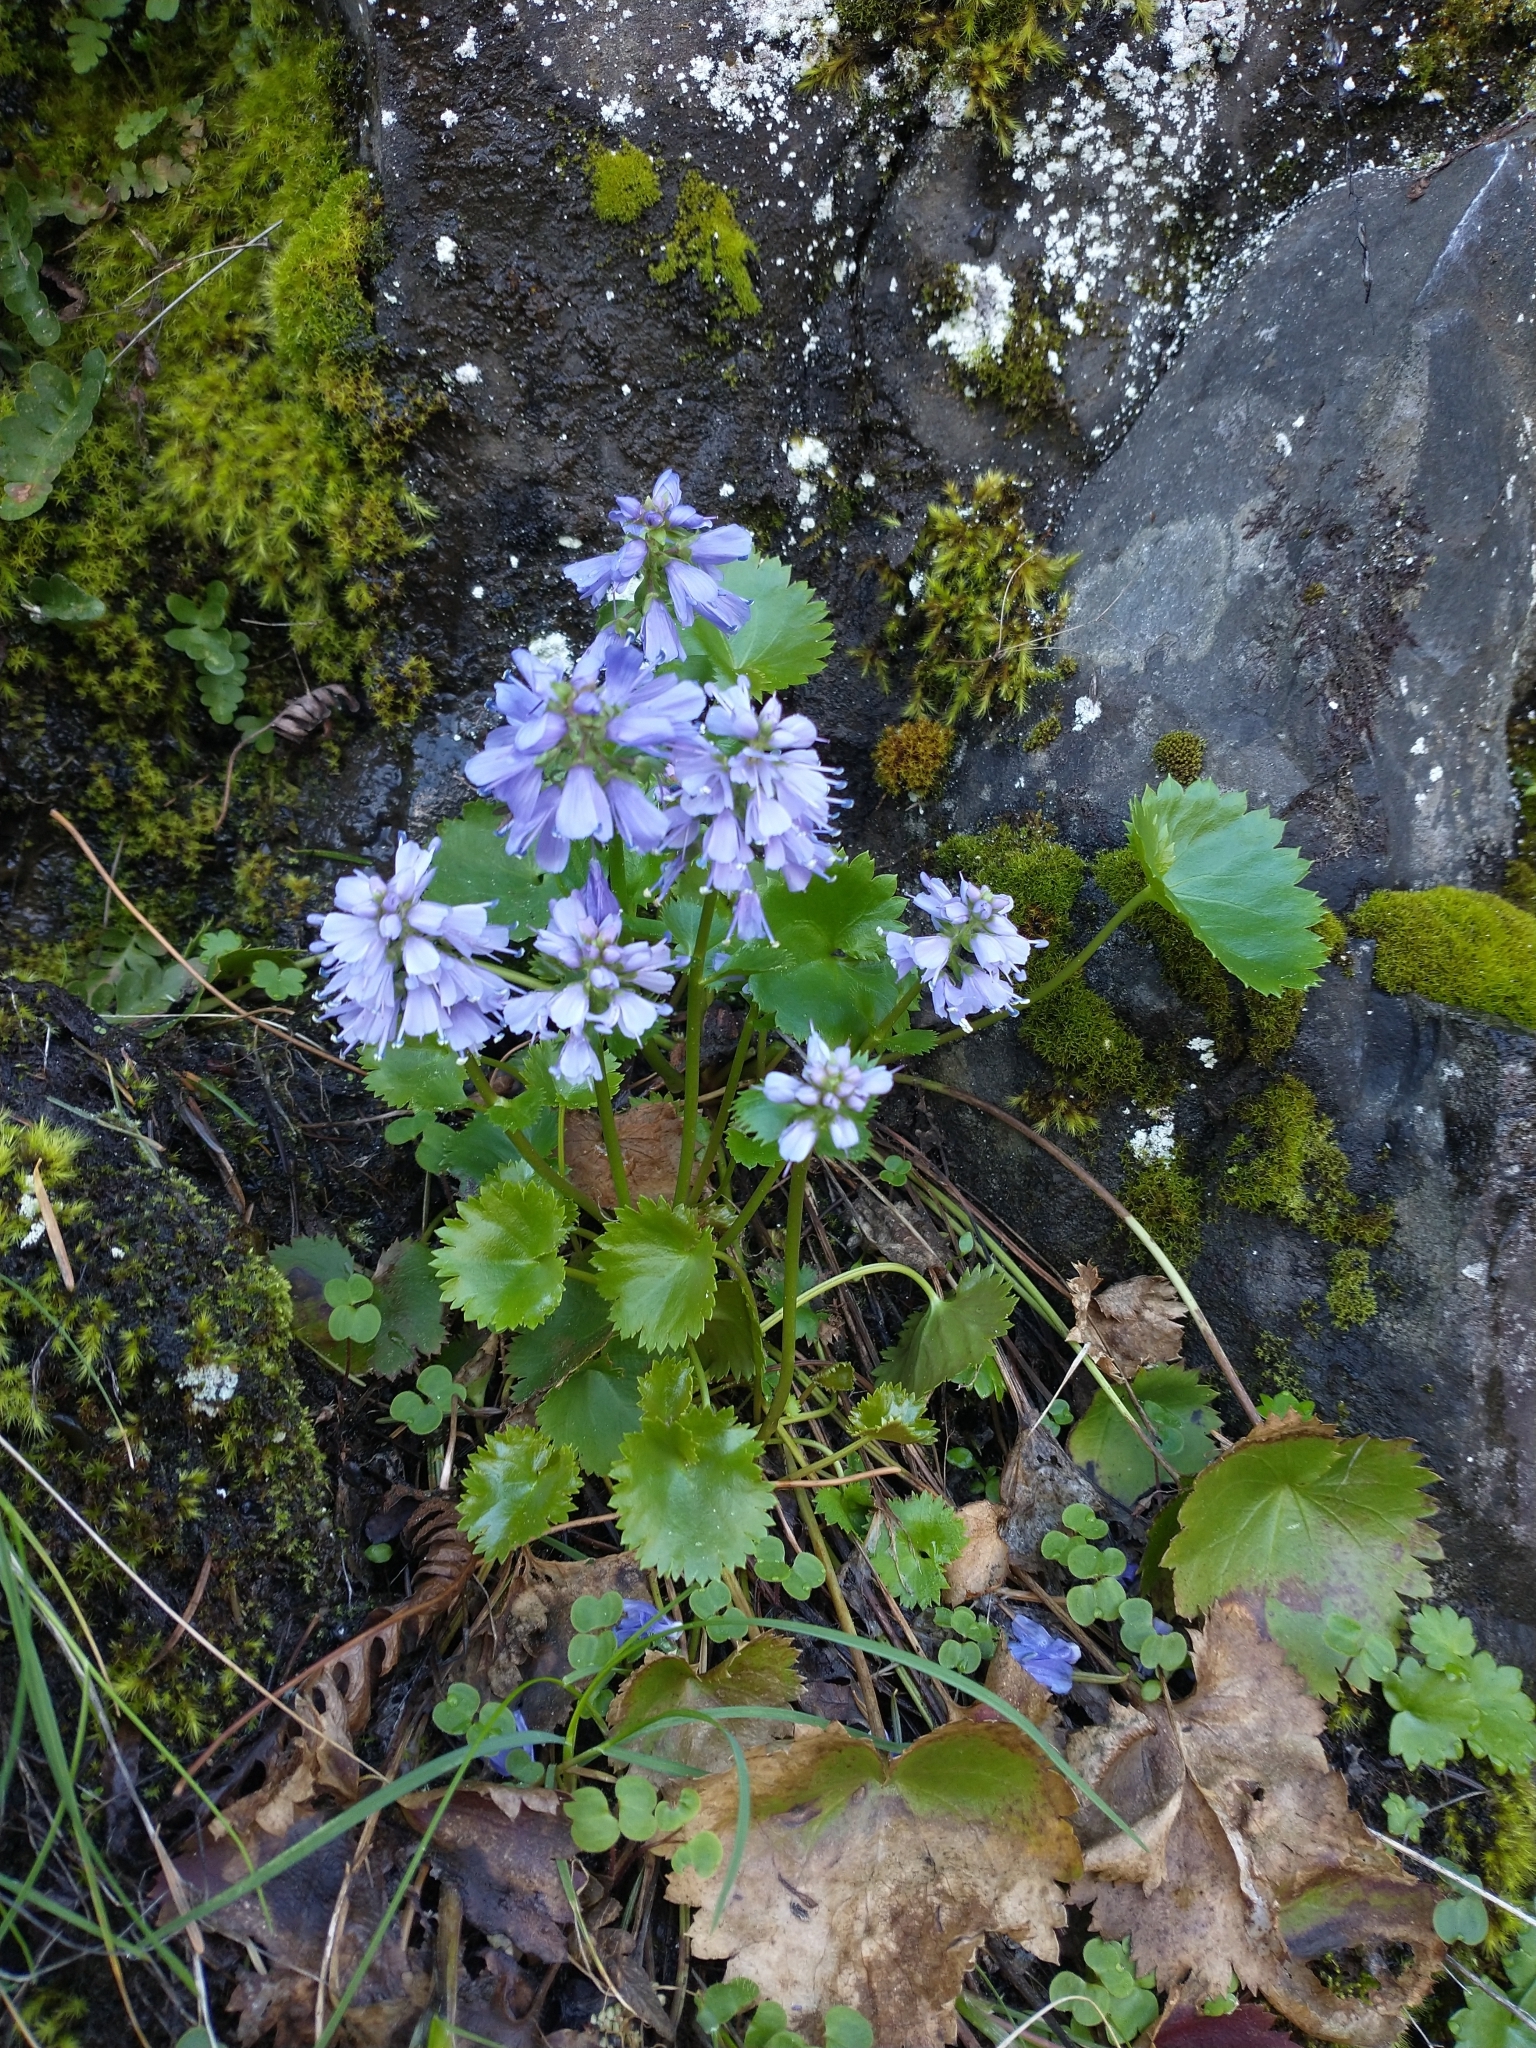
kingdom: Plantae
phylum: Tracheophyta
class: Magnoliopsida
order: Lamiales
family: Plantaginaceae
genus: Synthyris
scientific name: Synthyris missurica
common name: Kitten-tails
